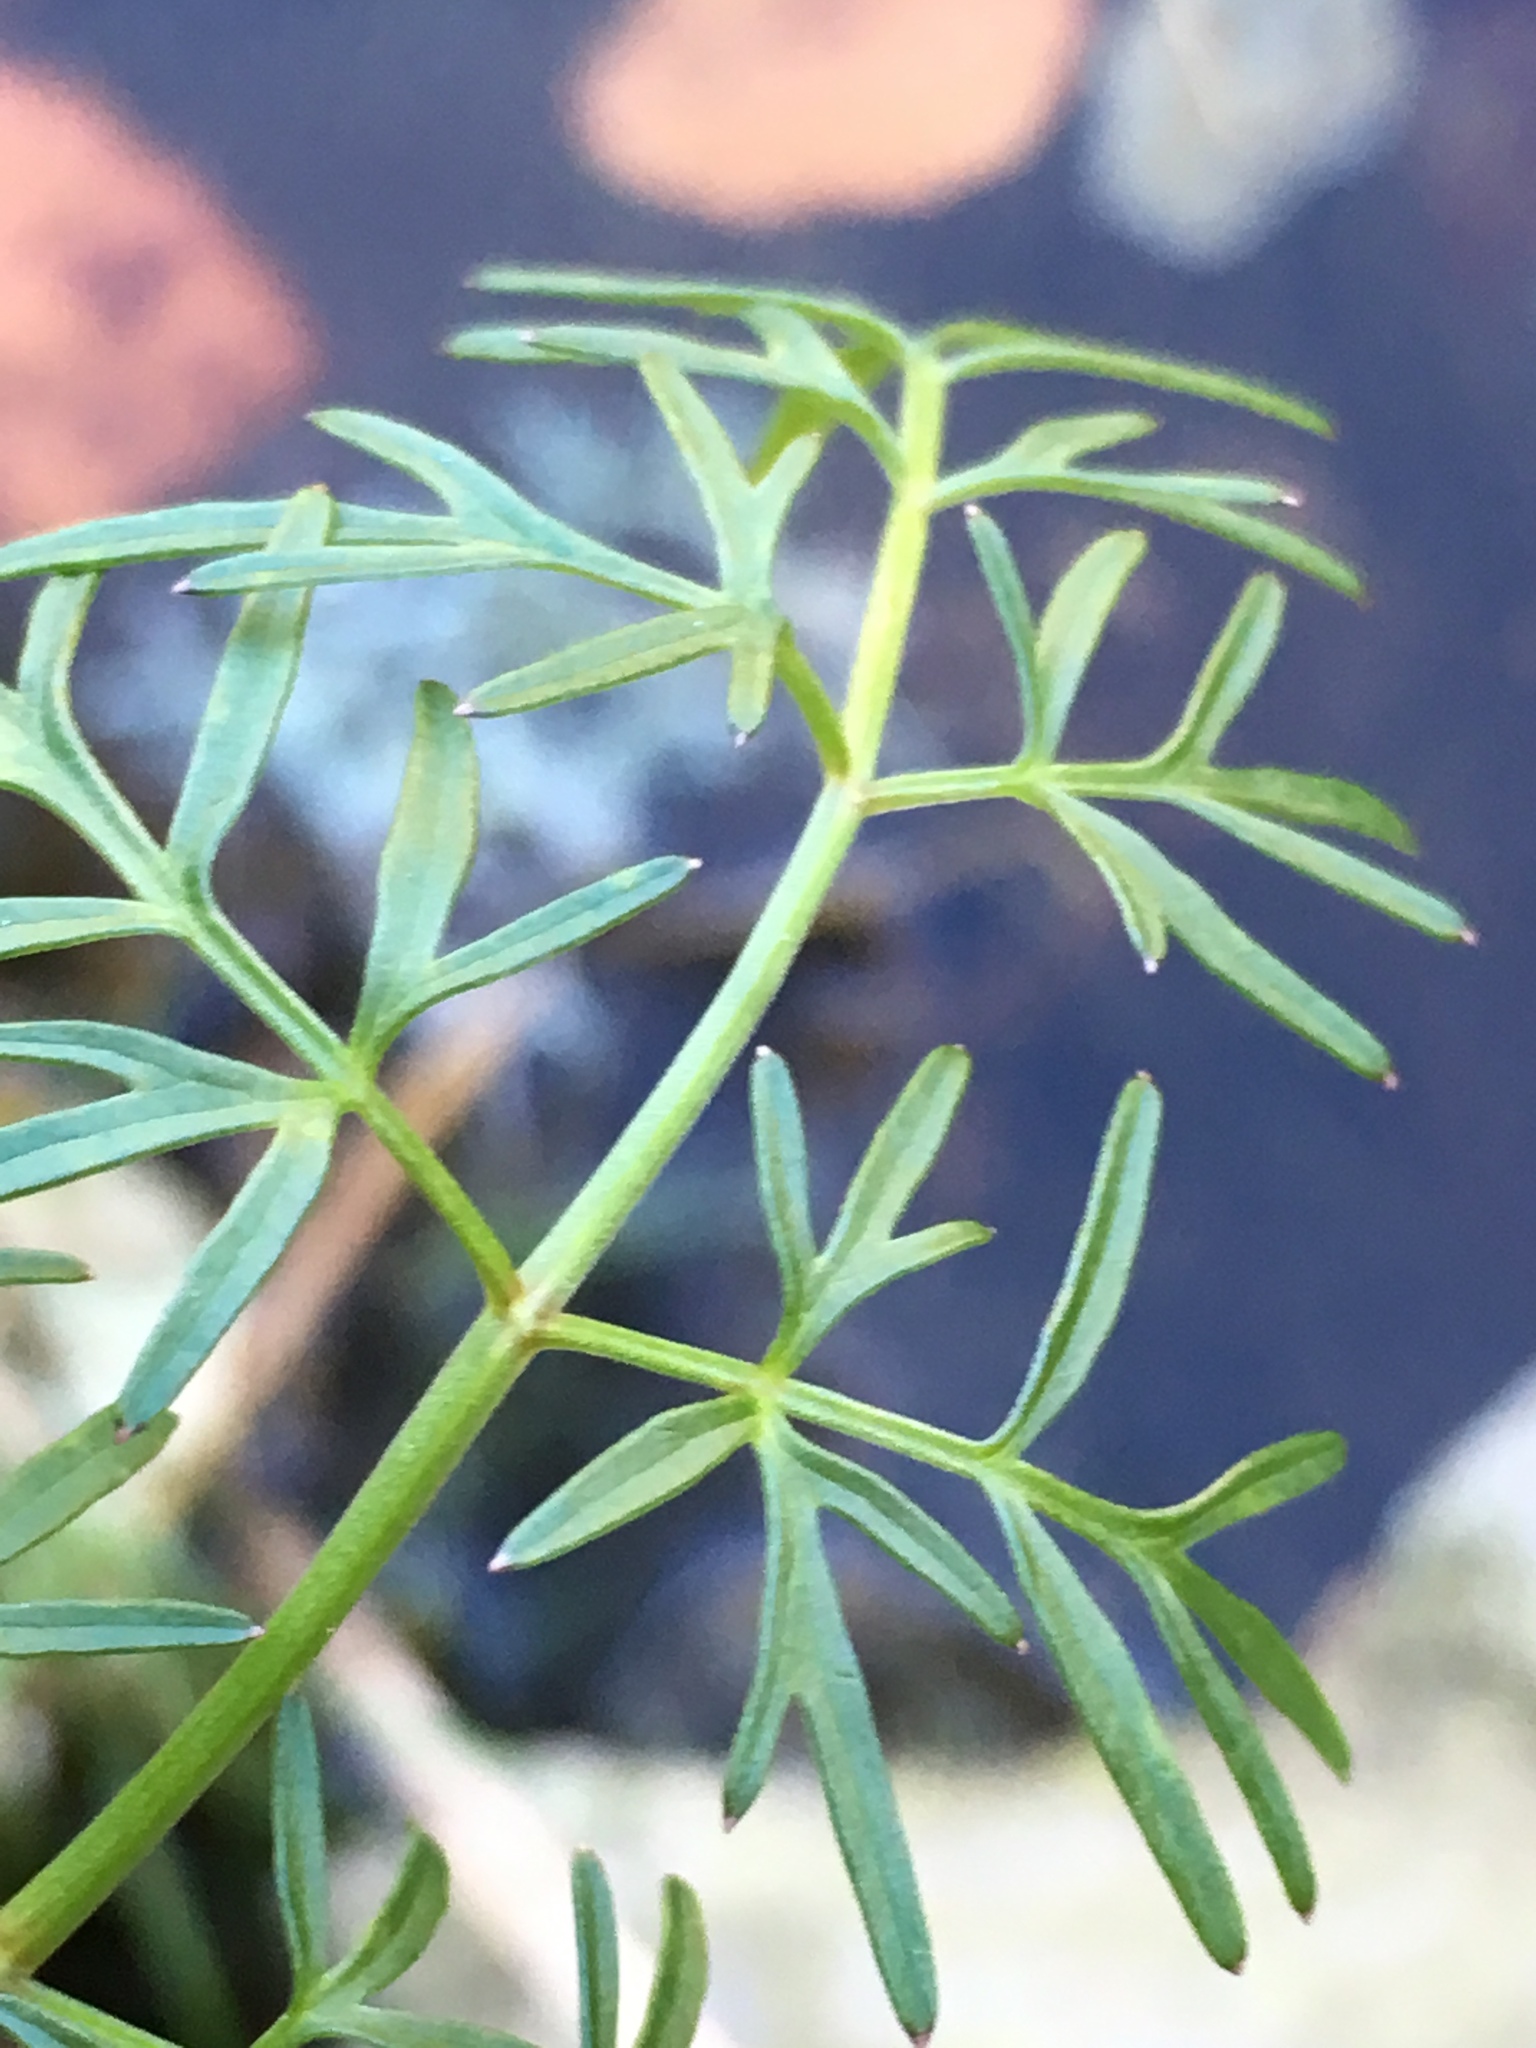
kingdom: Plantae
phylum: Tracheophyta
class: Magnoliopsida
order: Apiales
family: Apiaceae
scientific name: Apiaceae
